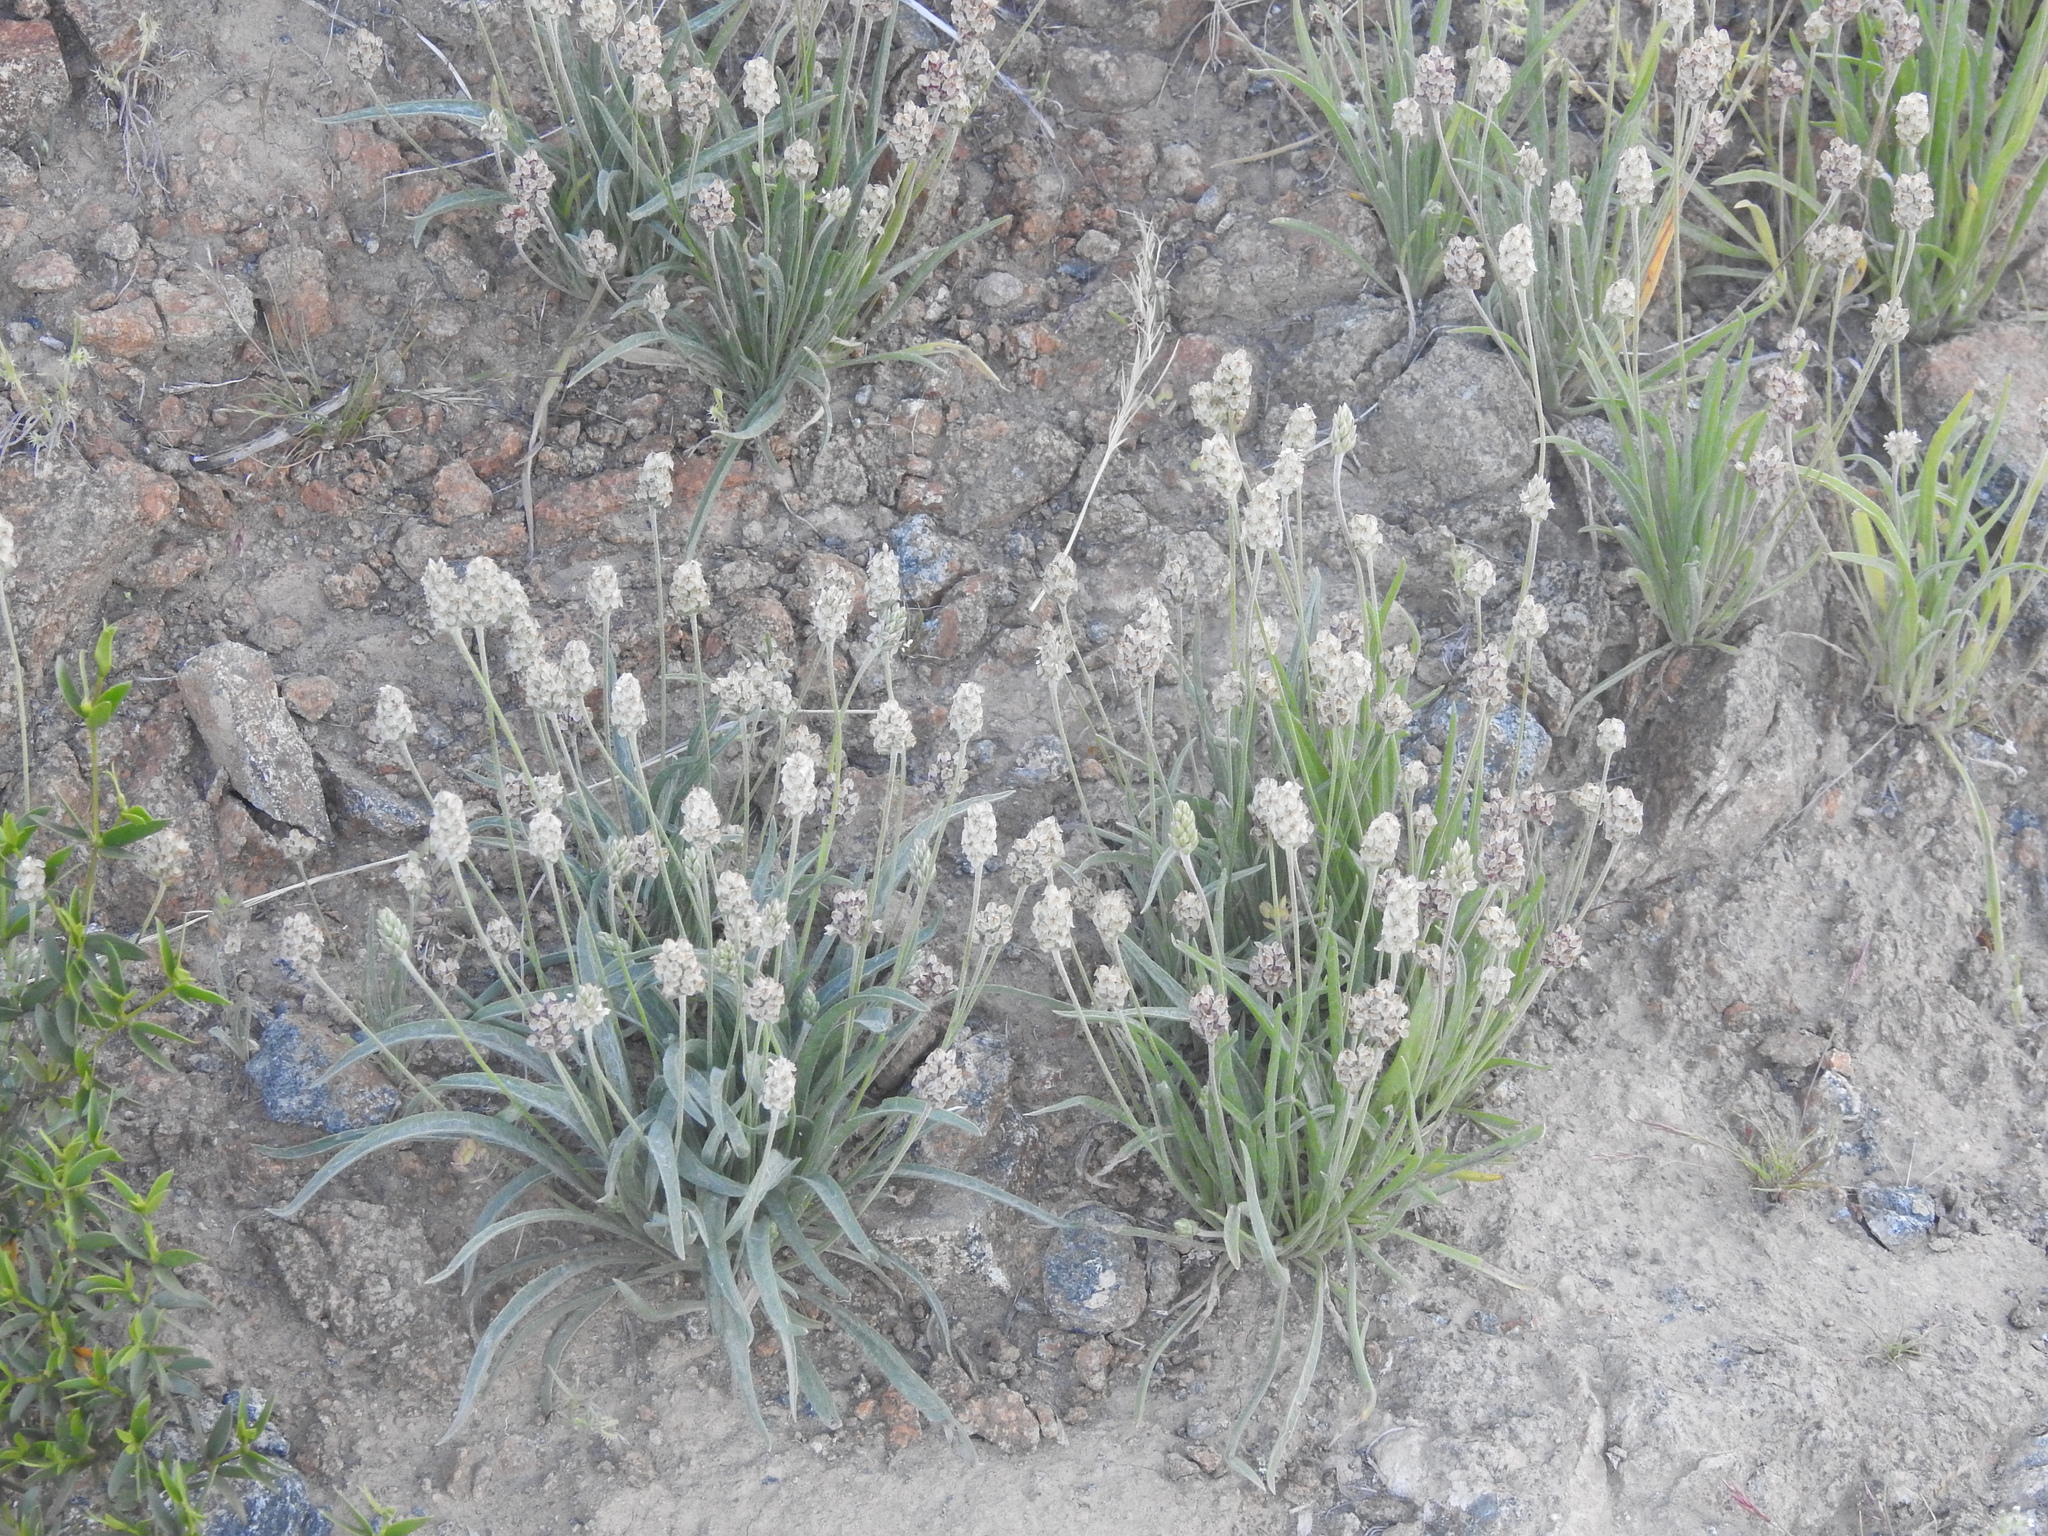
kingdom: Plantae
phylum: Tracheophyta
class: Magnoliopsida
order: Lamiales
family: Plantaginaceae
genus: Plantago
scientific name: Plantago ovata
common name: Blond plantain
